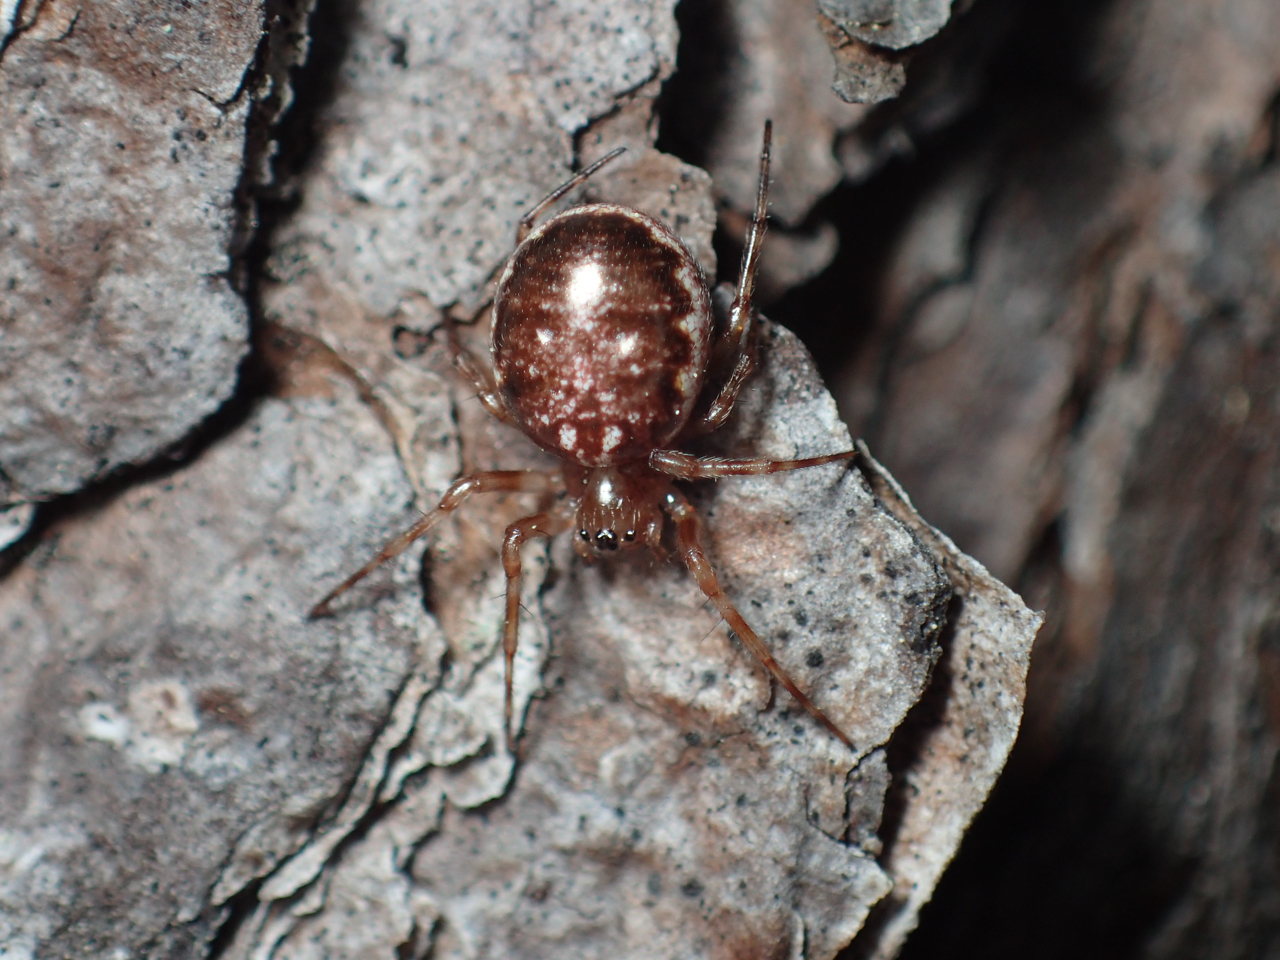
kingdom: Animalia
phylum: Arthropoda
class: Arachnida
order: Araneae
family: Araneidae
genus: Hypsosinga
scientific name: Hypsosinga rubens
